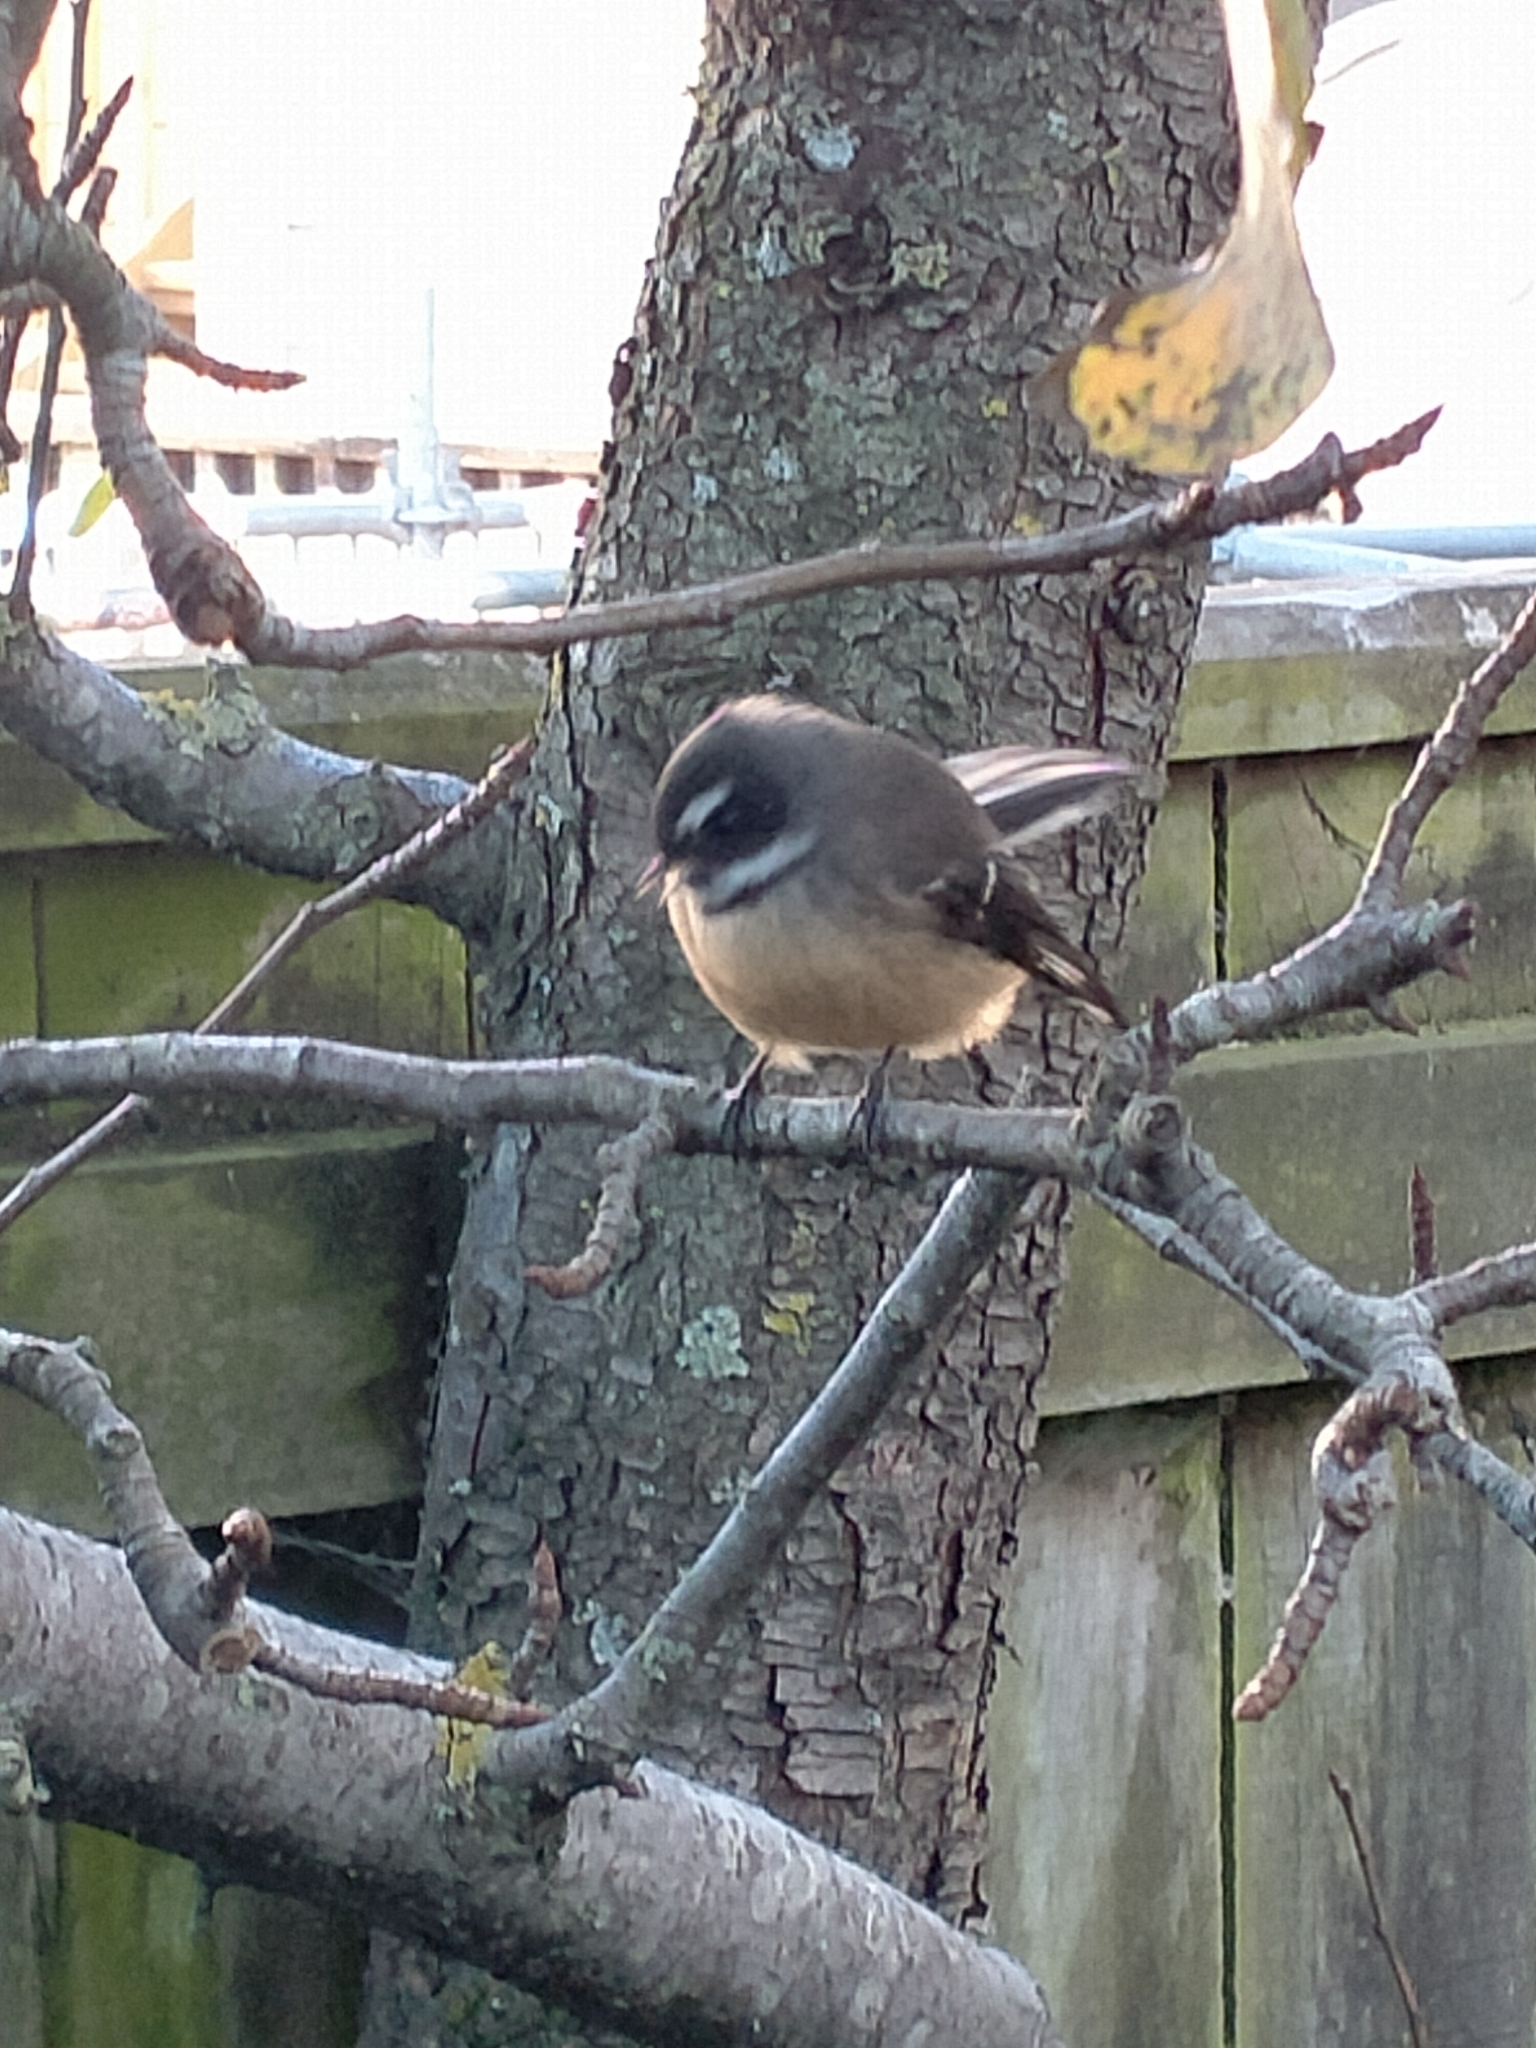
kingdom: Animalia
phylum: Chordata
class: Aves
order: Passeriformes
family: Rhipiduridae
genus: Rhipidura
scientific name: Rhipidura fuliginosa
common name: New zealand fantail
